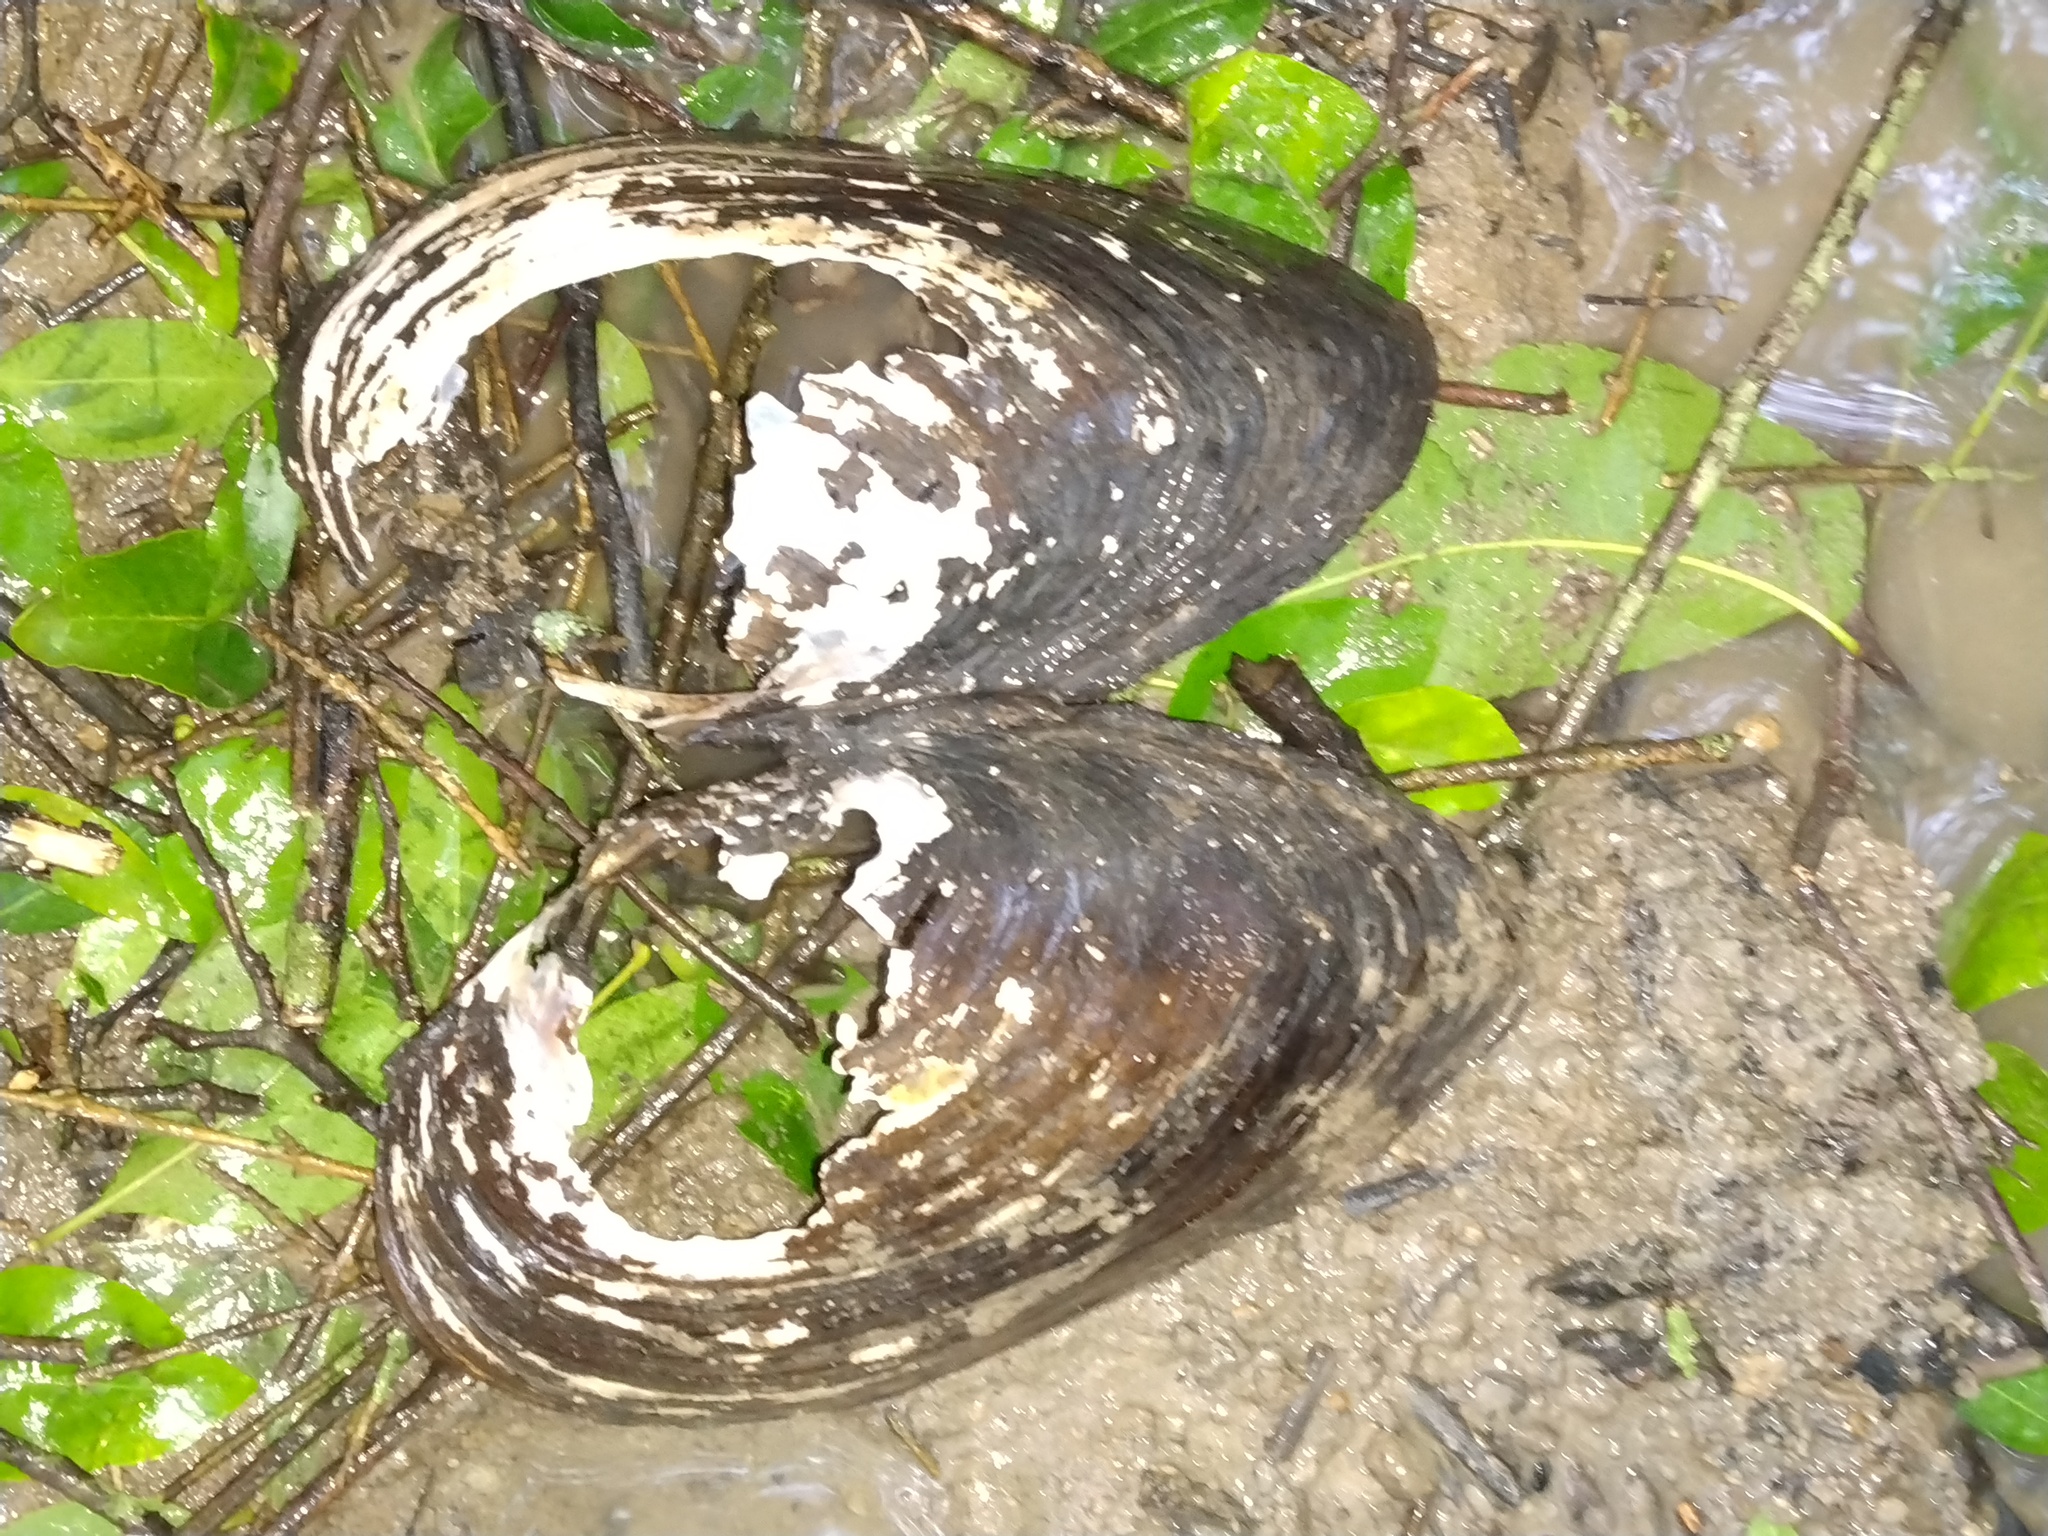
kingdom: Animalia
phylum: Mollusca
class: Bivalvia
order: Unionida
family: Unionidae
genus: Pyganodon
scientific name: Pyganodon grandis
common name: Giant floater
